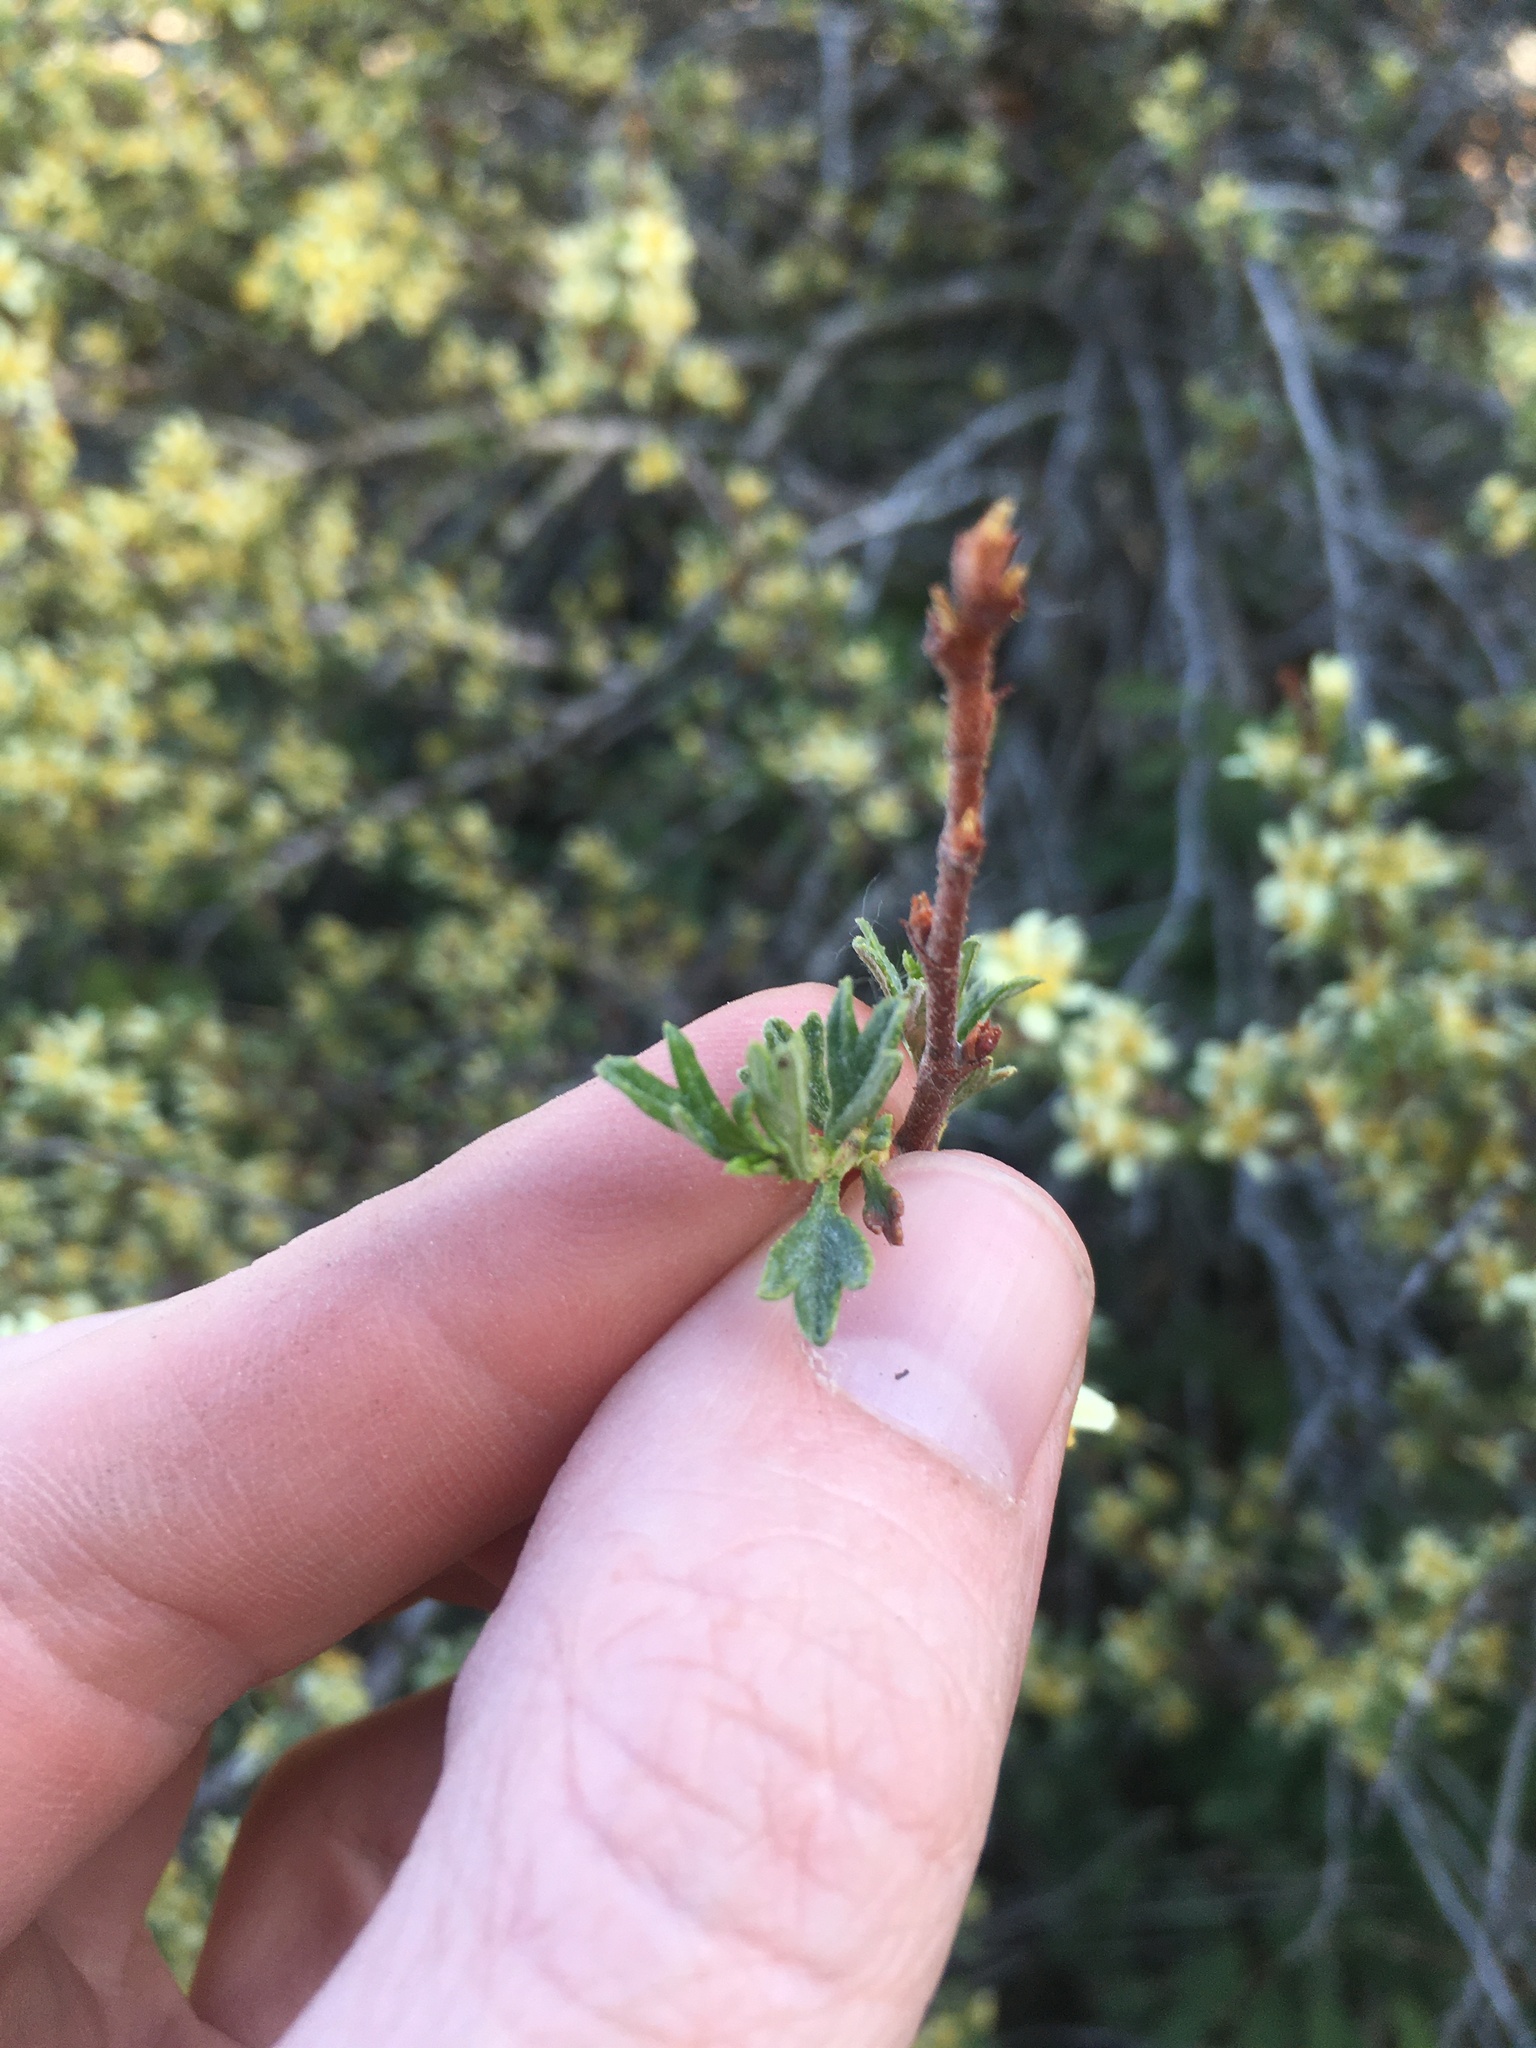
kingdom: Plantae
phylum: Tracheophyta
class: Magnoliopsida
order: Rosales
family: Rosaceae
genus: Purshia
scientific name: Purshia tridentata
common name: Antelope bitterbrush
